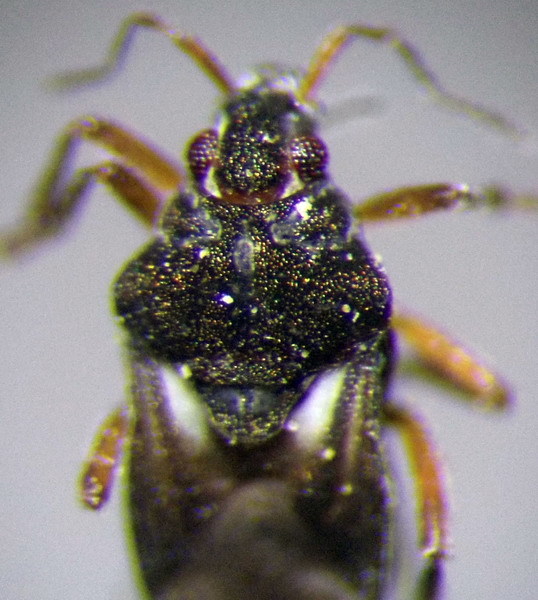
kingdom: Animalia
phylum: Arthropoda
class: Insecta
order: Hemiptera
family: Hebridae
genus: Hebrus
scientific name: Hebrus pilipes
